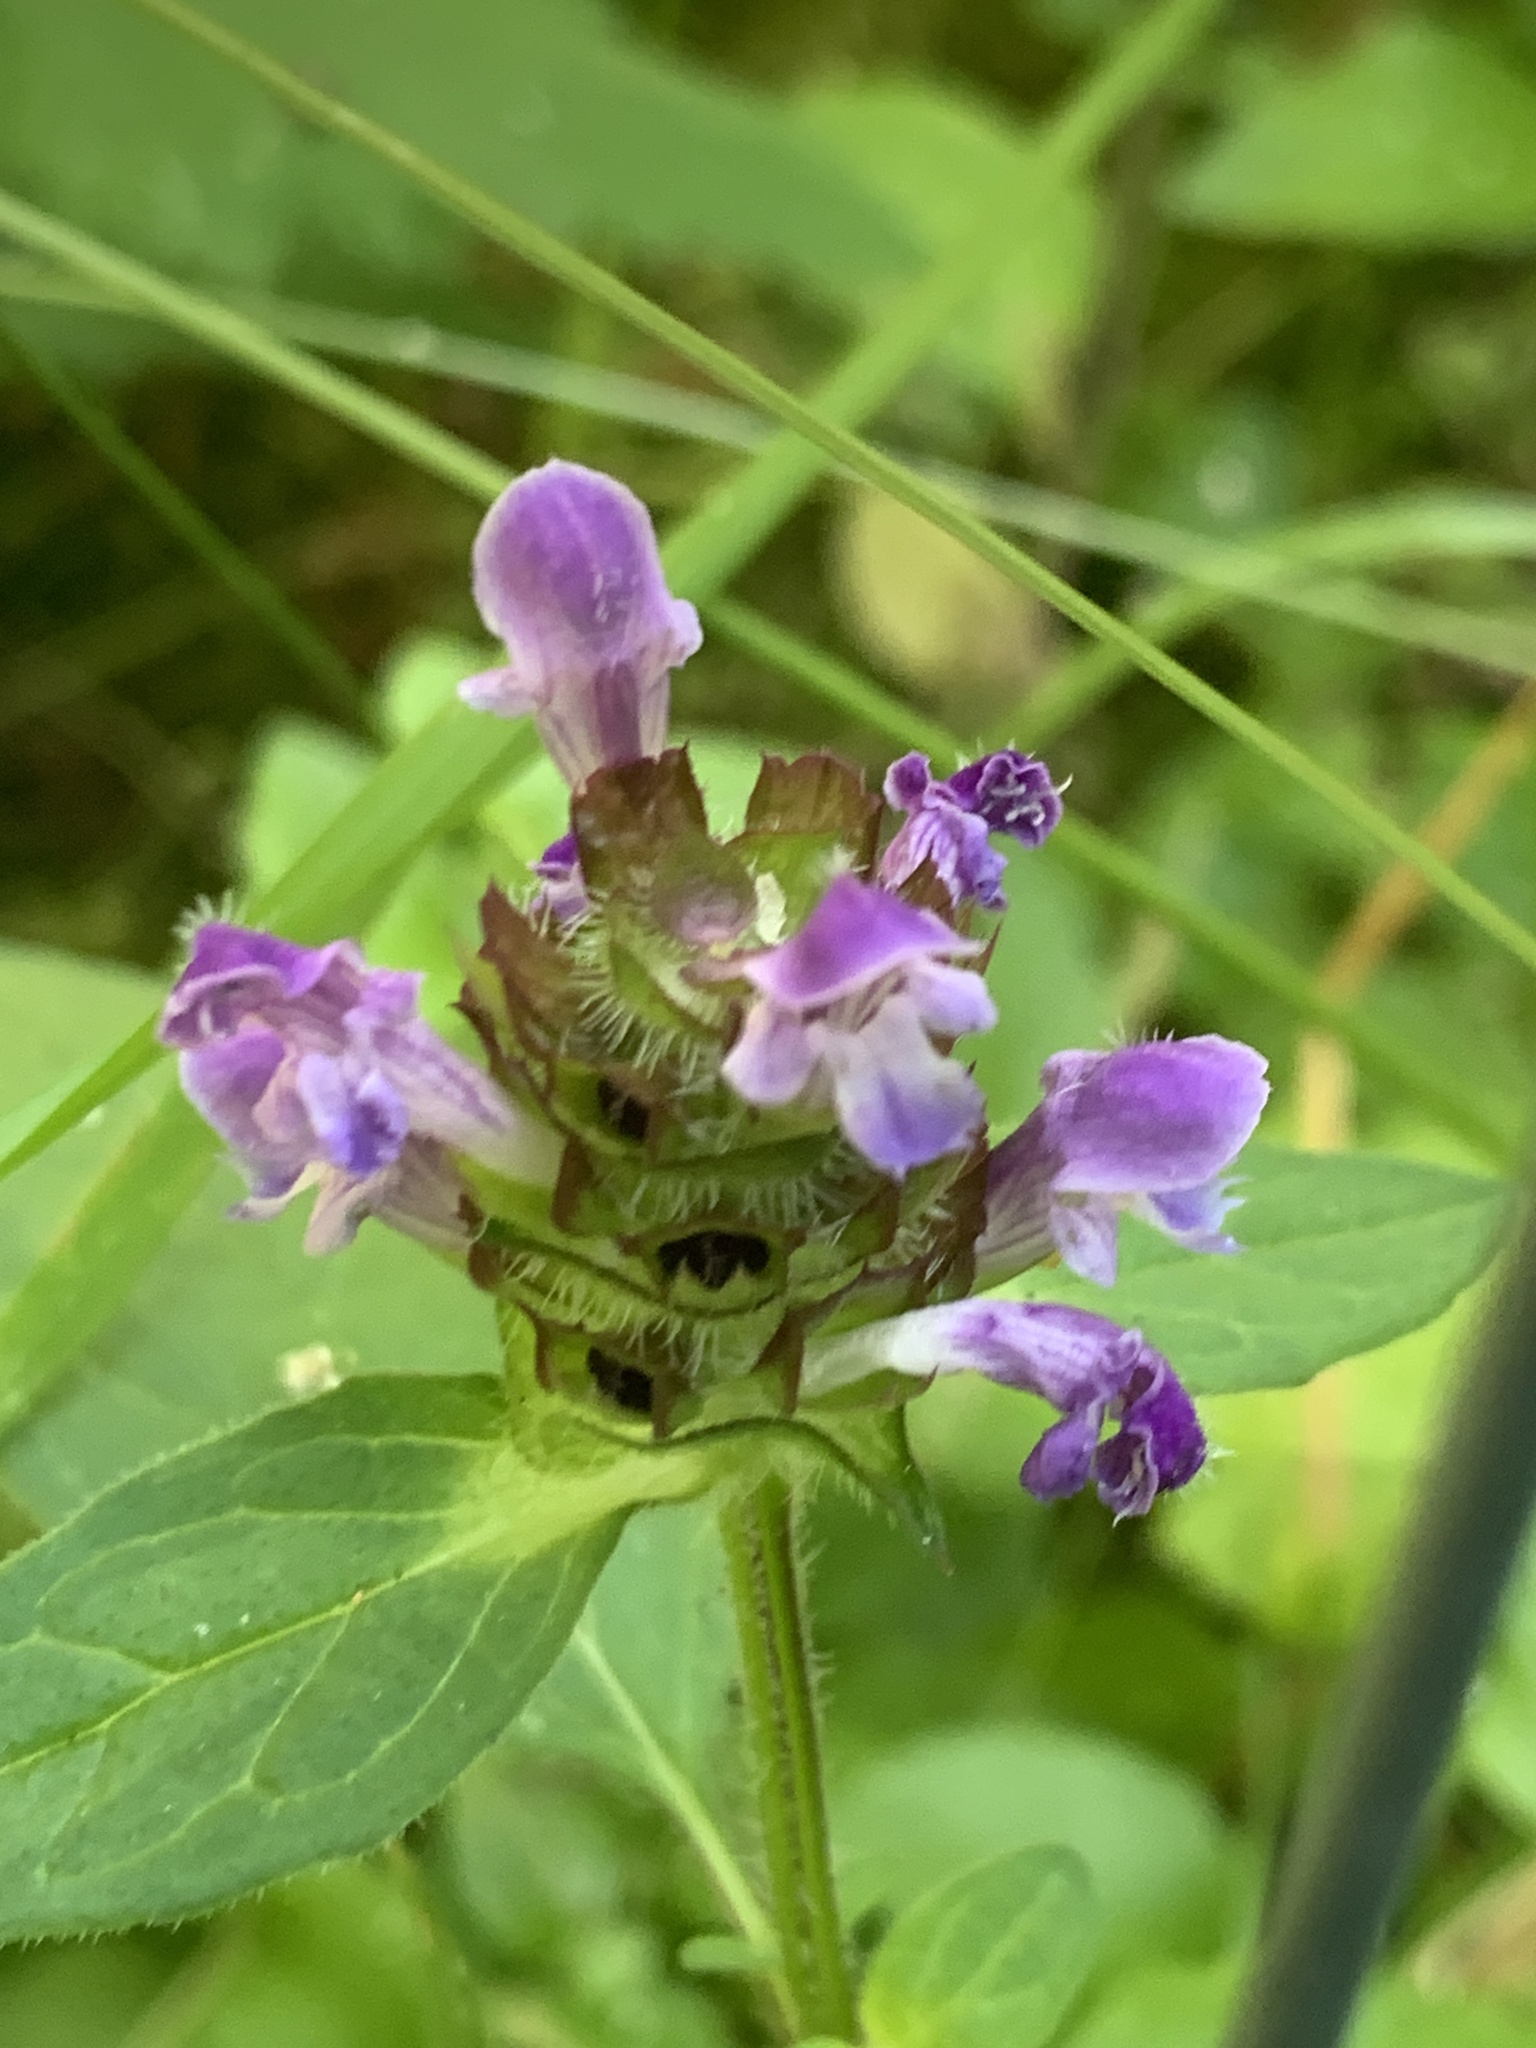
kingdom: Plantae
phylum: Tracheophyta
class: Magnoliopsida
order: Lamiales
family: Lamiaceae
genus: Prunella
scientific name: Prunella vulgaris
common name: Heal-all
